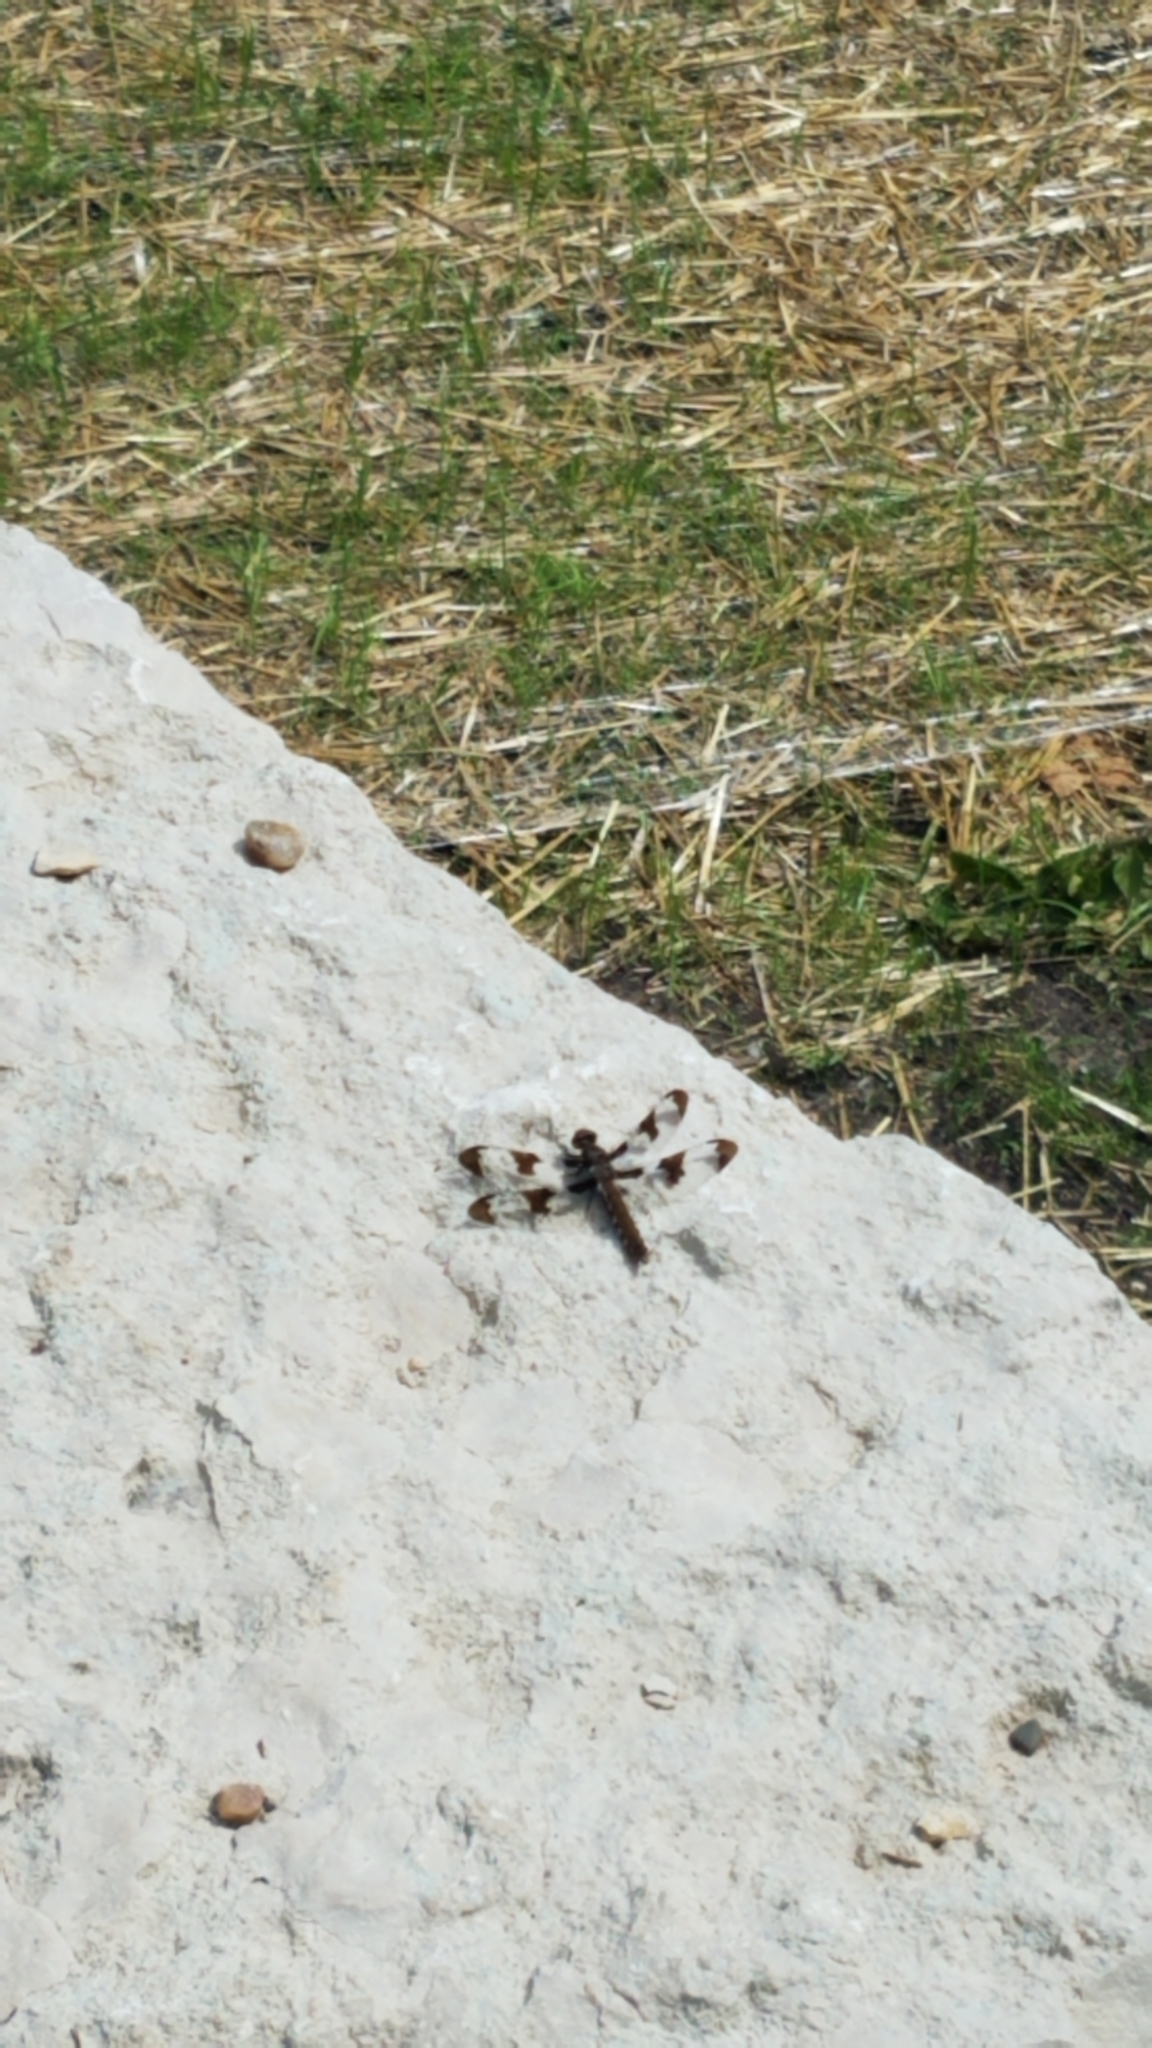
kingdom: Animalia
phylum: Arthropoda
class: Insecta
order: Odonata
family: Libellulidae
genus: Plathemis
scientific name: Plathemis lydia
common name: Common whitetail
